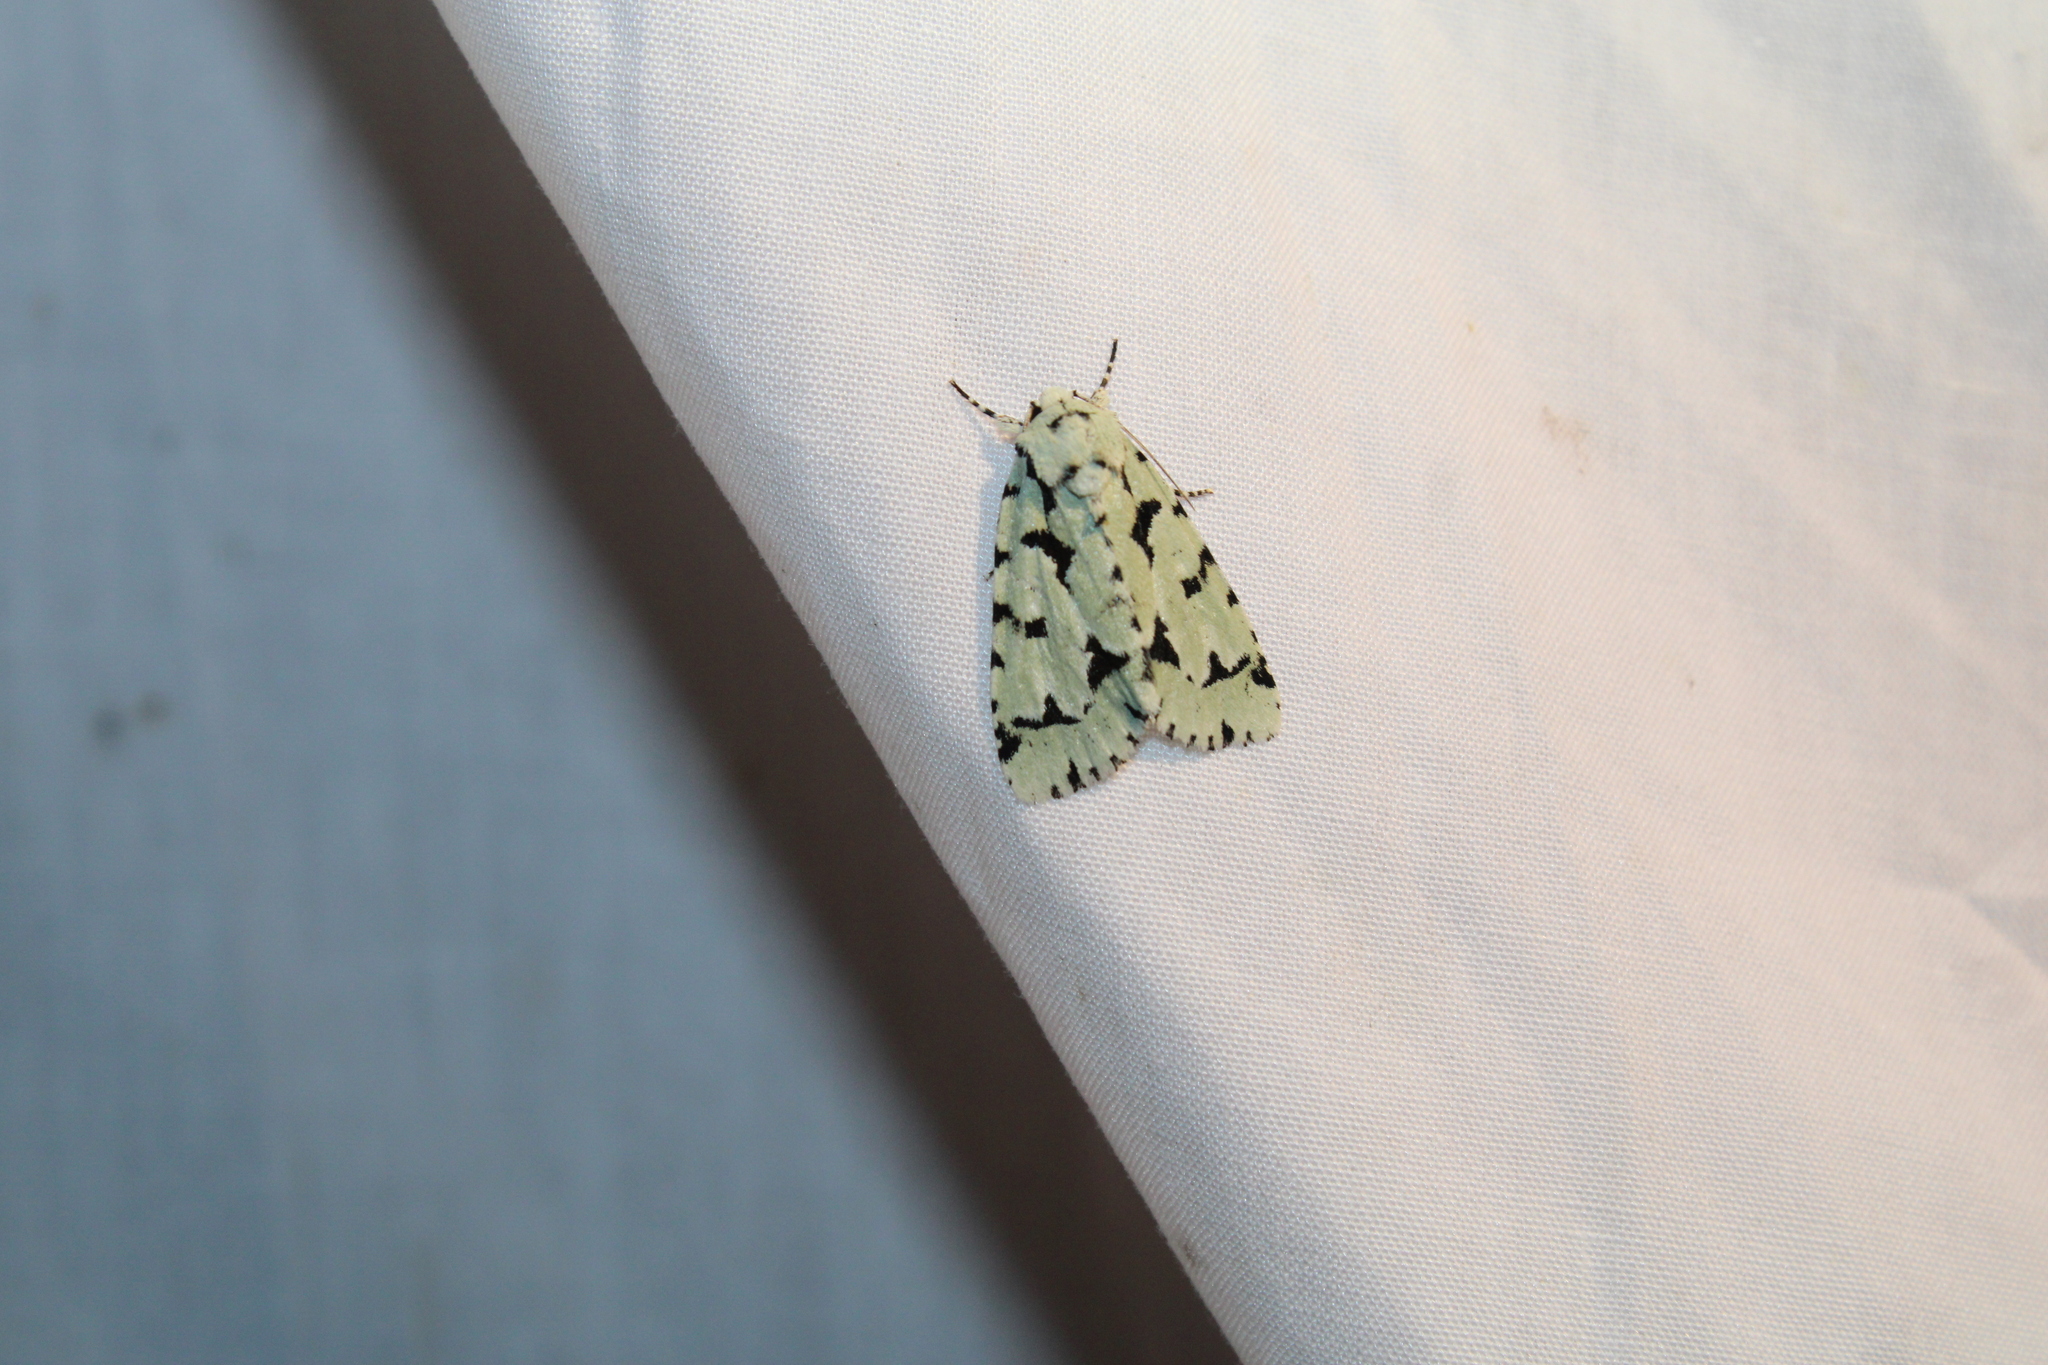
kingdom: Animalia
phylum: Arthropoda
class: Insecta
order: Lepidoptera
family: Noctuidae
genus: Acronicta
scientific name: Acronicta fallax
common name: Green marvel
